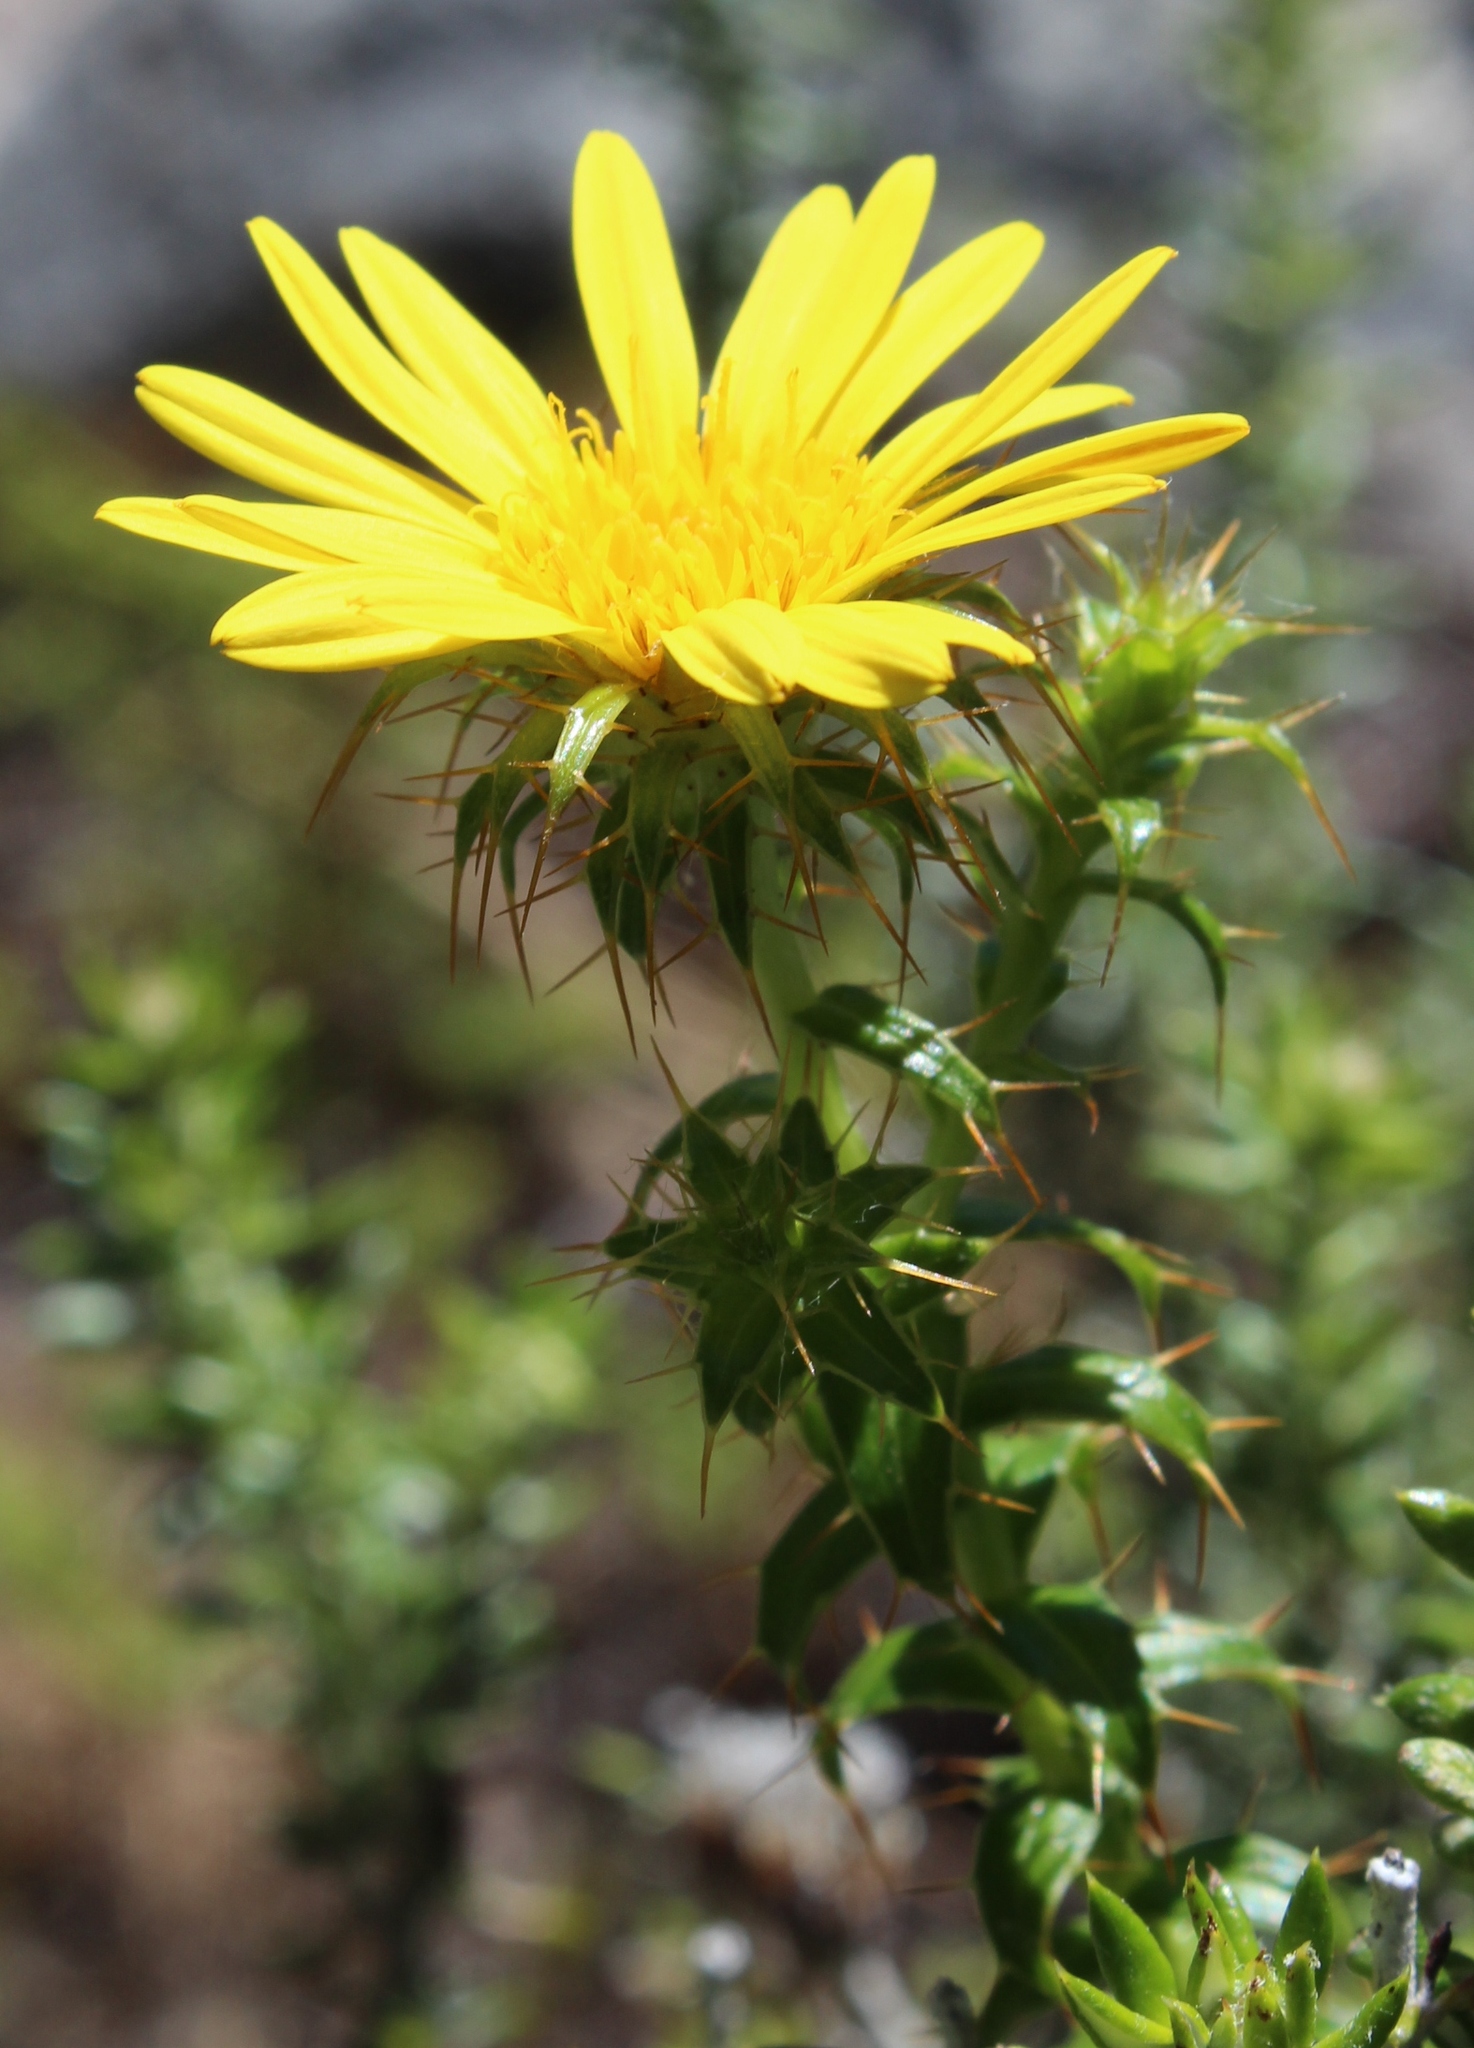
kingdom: Plantae
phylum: Tracheophyta
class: Magnoliopsida
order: Asterales
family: Asteraceae
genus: Cullumia
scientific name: Cullumia setosa
